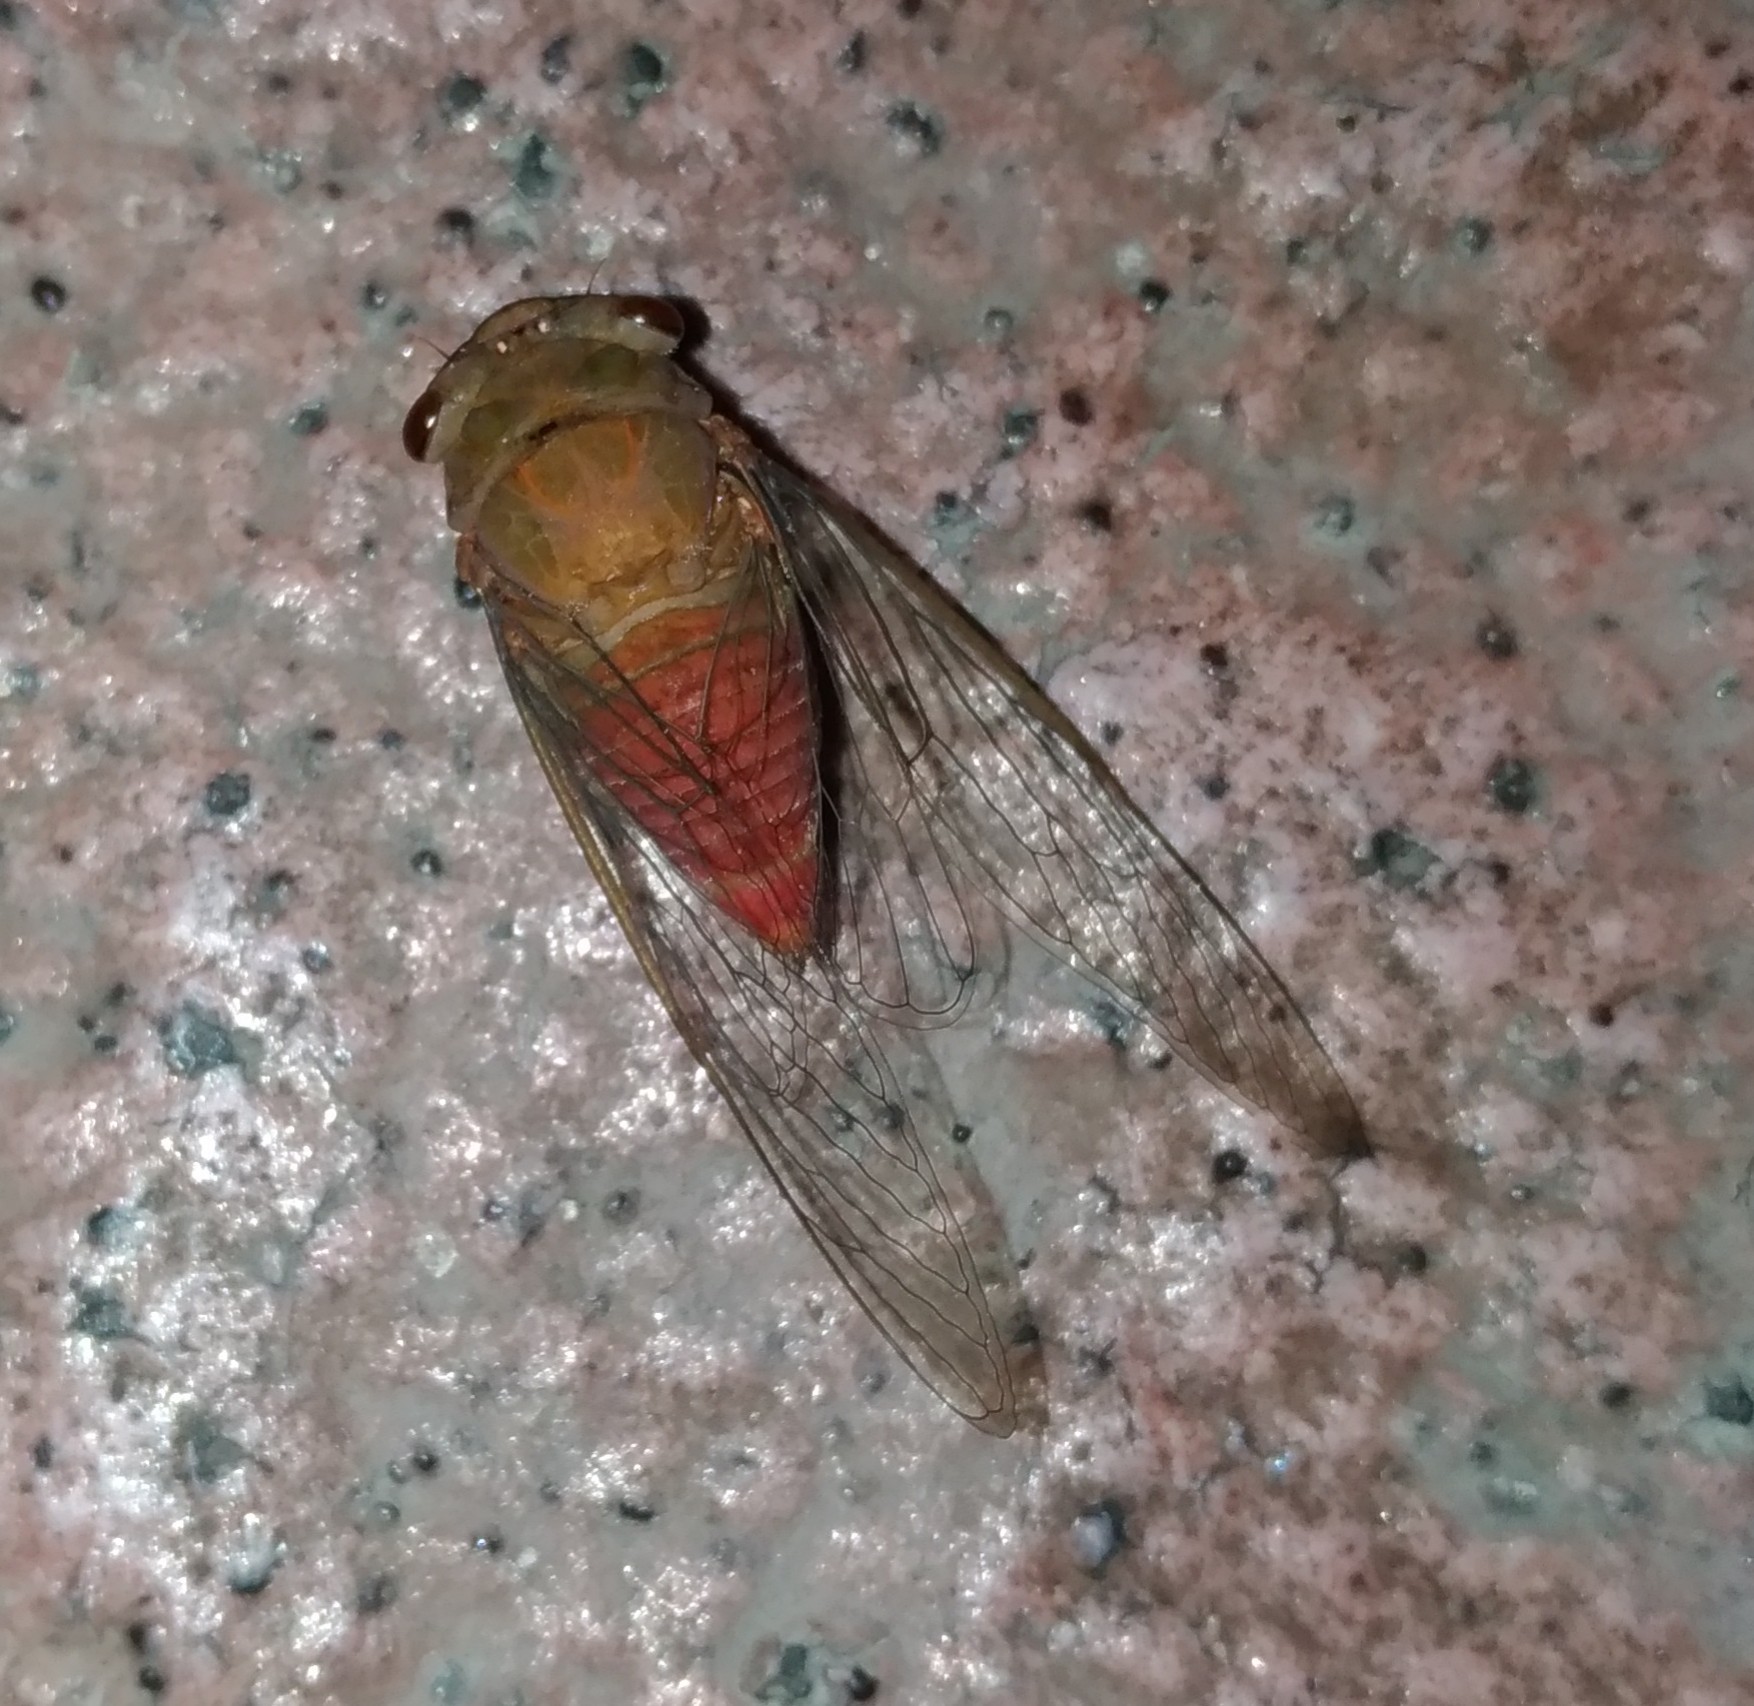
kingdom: Animalia
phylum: Arthropoda
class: Insecta
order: Hemiptera
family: Cicadidae
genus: Chremistica
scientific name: Chremistica ochracea
